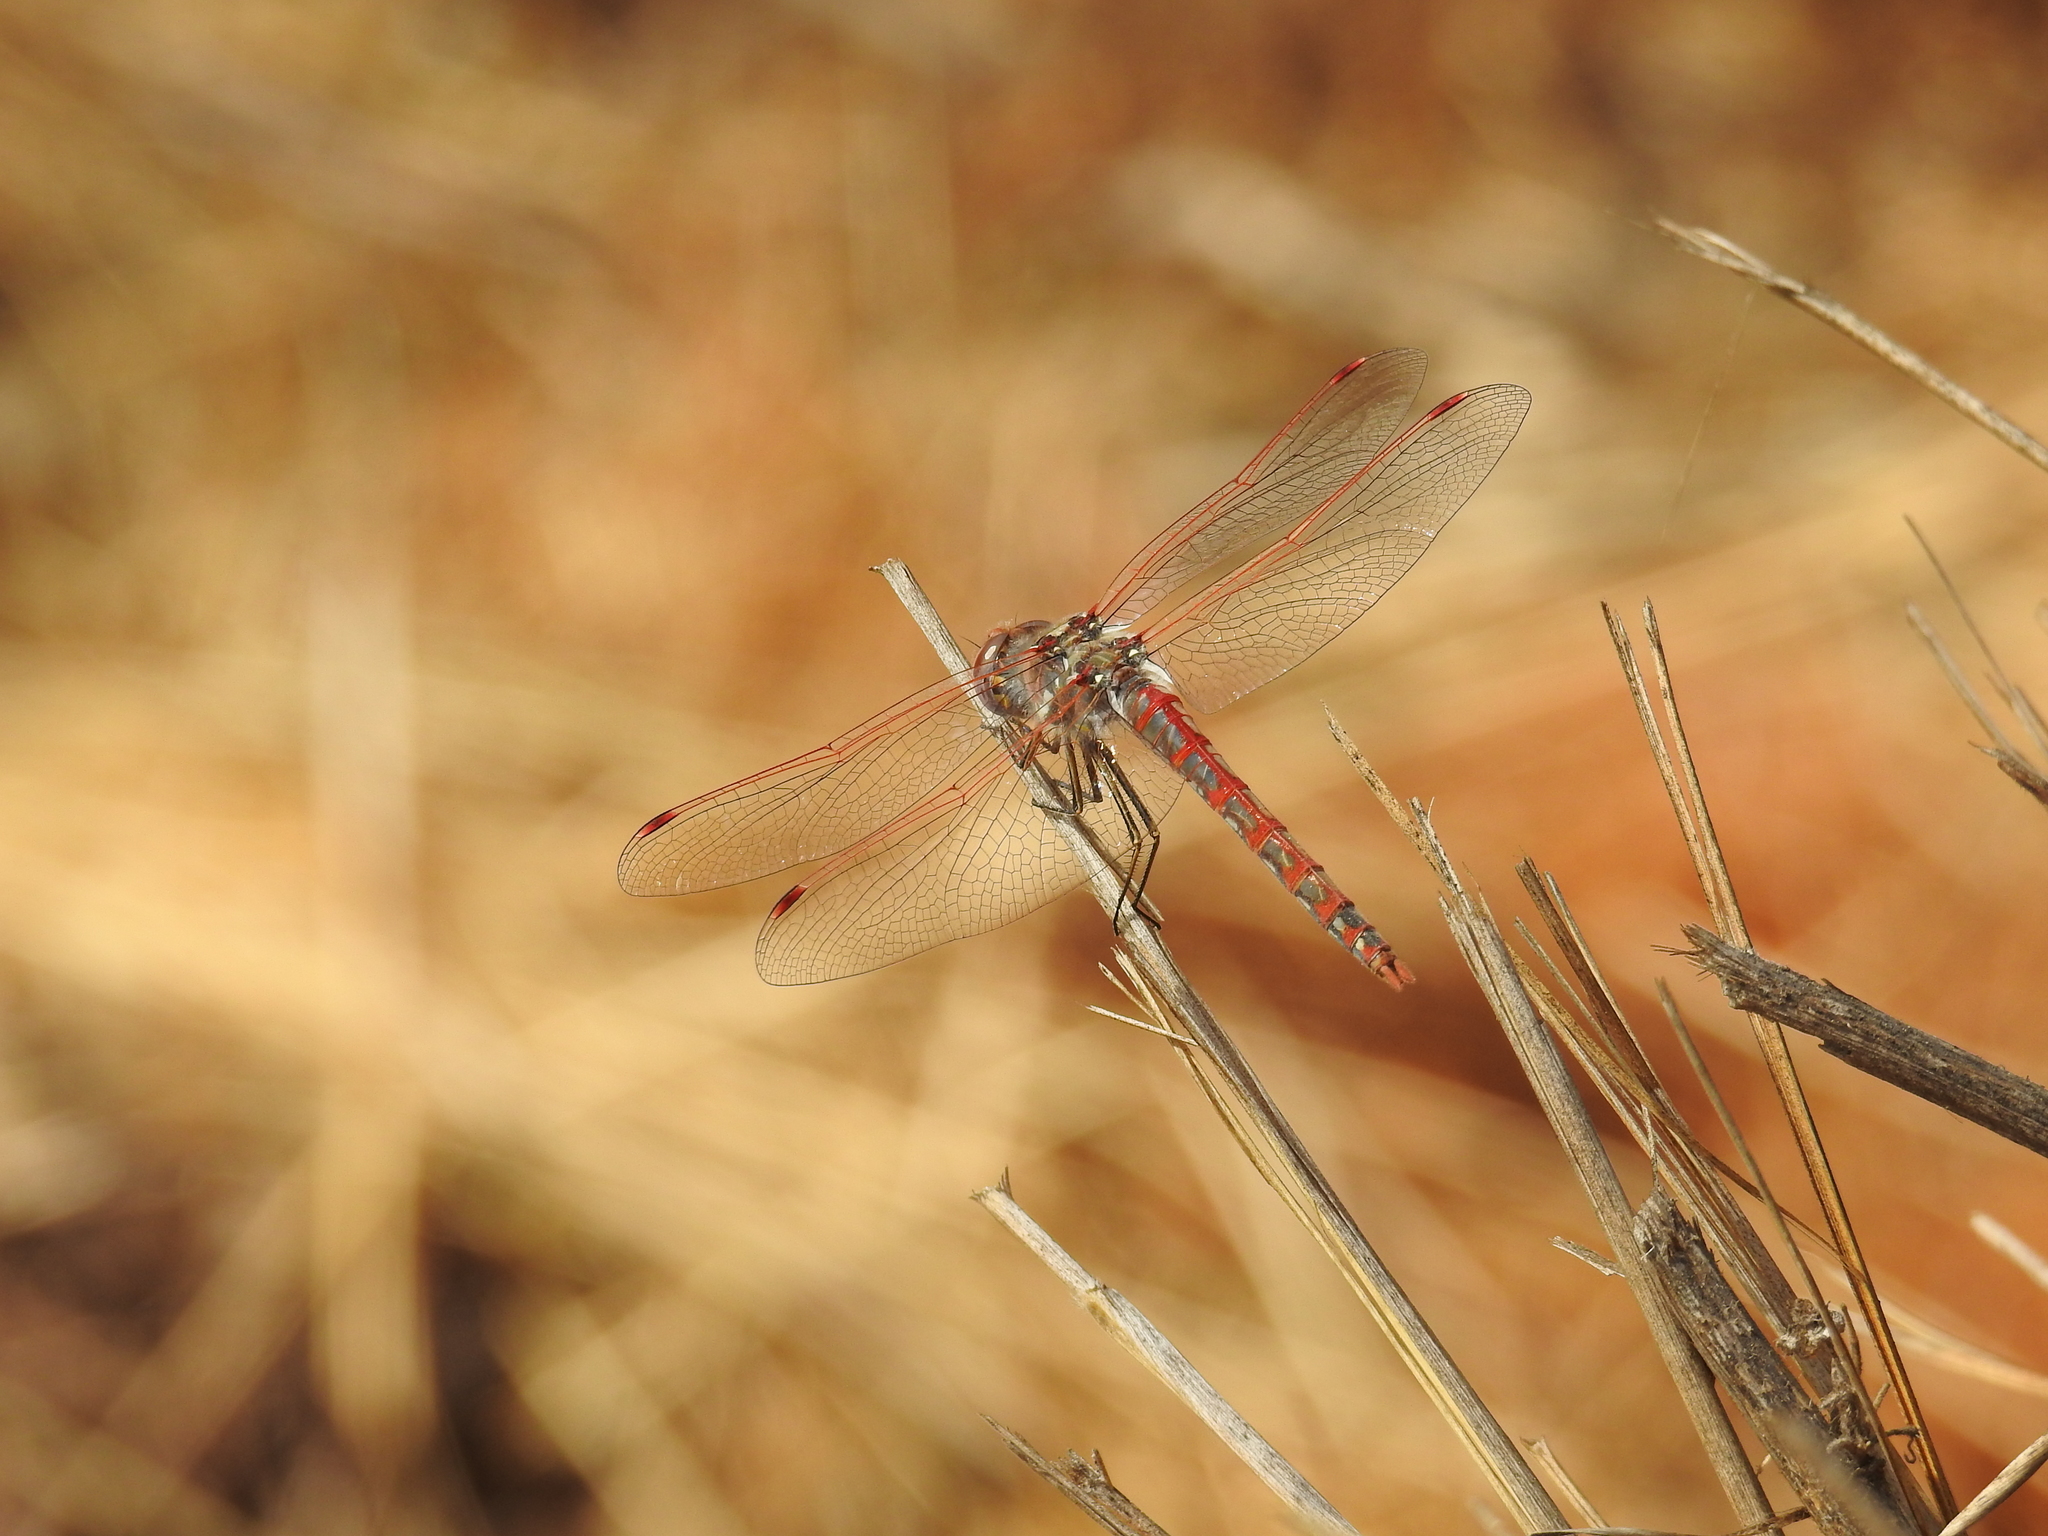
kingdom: Animalia
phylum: Arthropoda
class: Insecta
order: Odonata
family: Libellulidae
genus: Sympetrum
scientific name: Sympetrum corruptum
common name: Variegated meadowhawk
